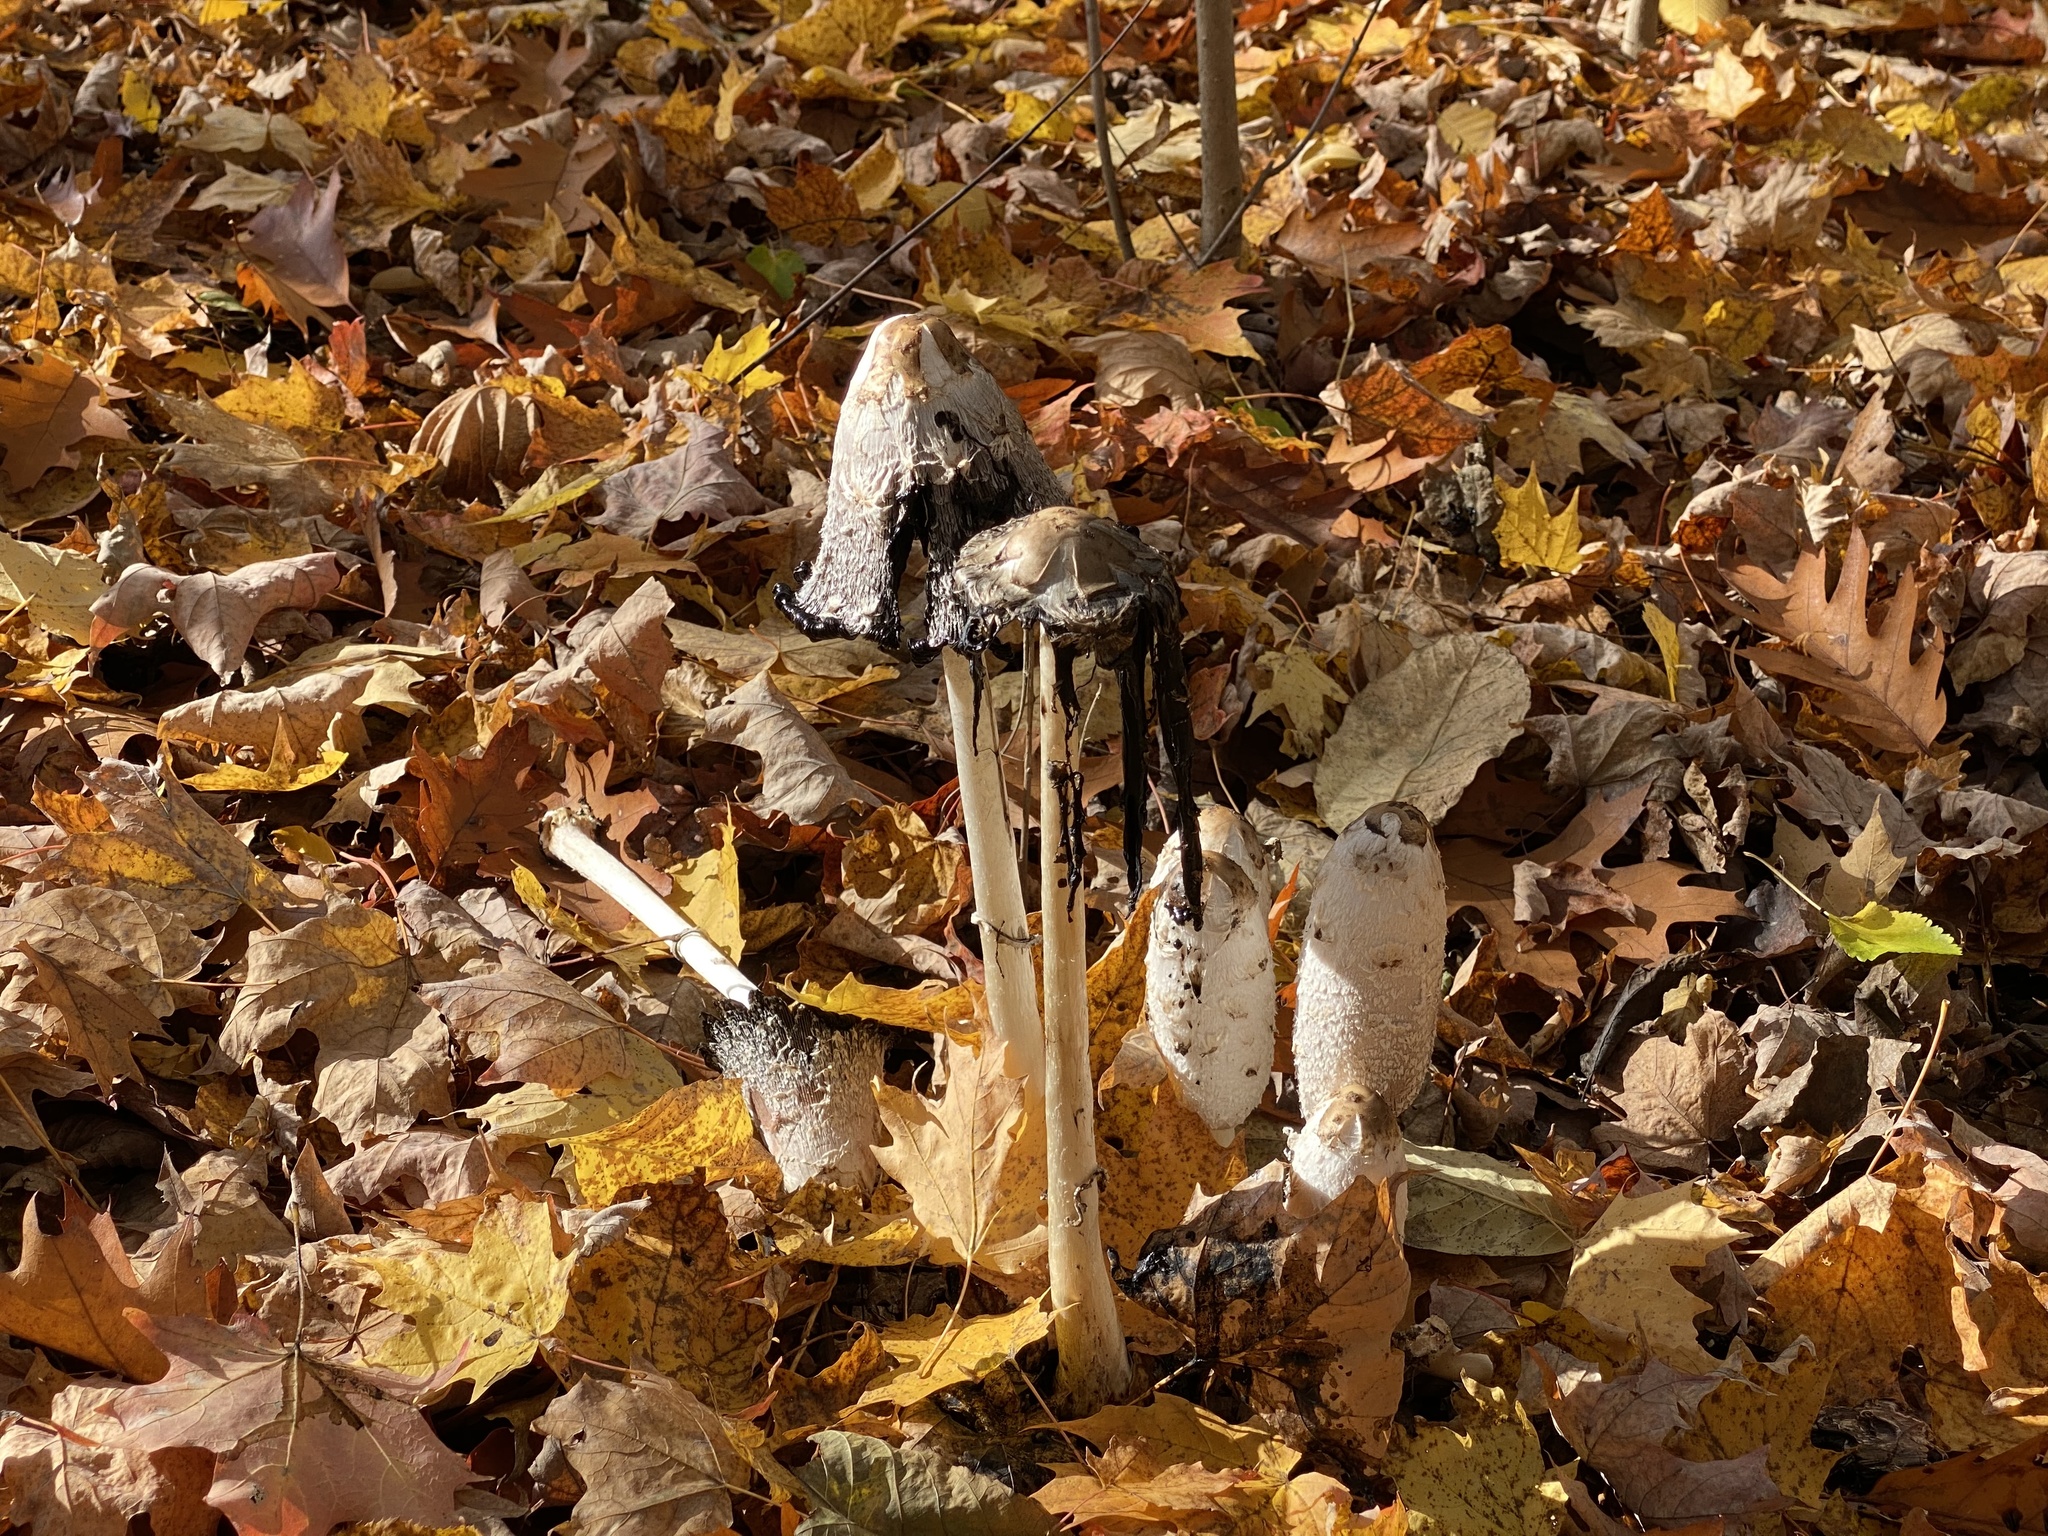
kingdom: Fungi
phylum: Basidiomycota
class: Agaricomycetes
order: Agaricales
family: Agaricaceae
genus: Coprinus
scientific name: Coprinus comatus
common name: Lawyer's wig
